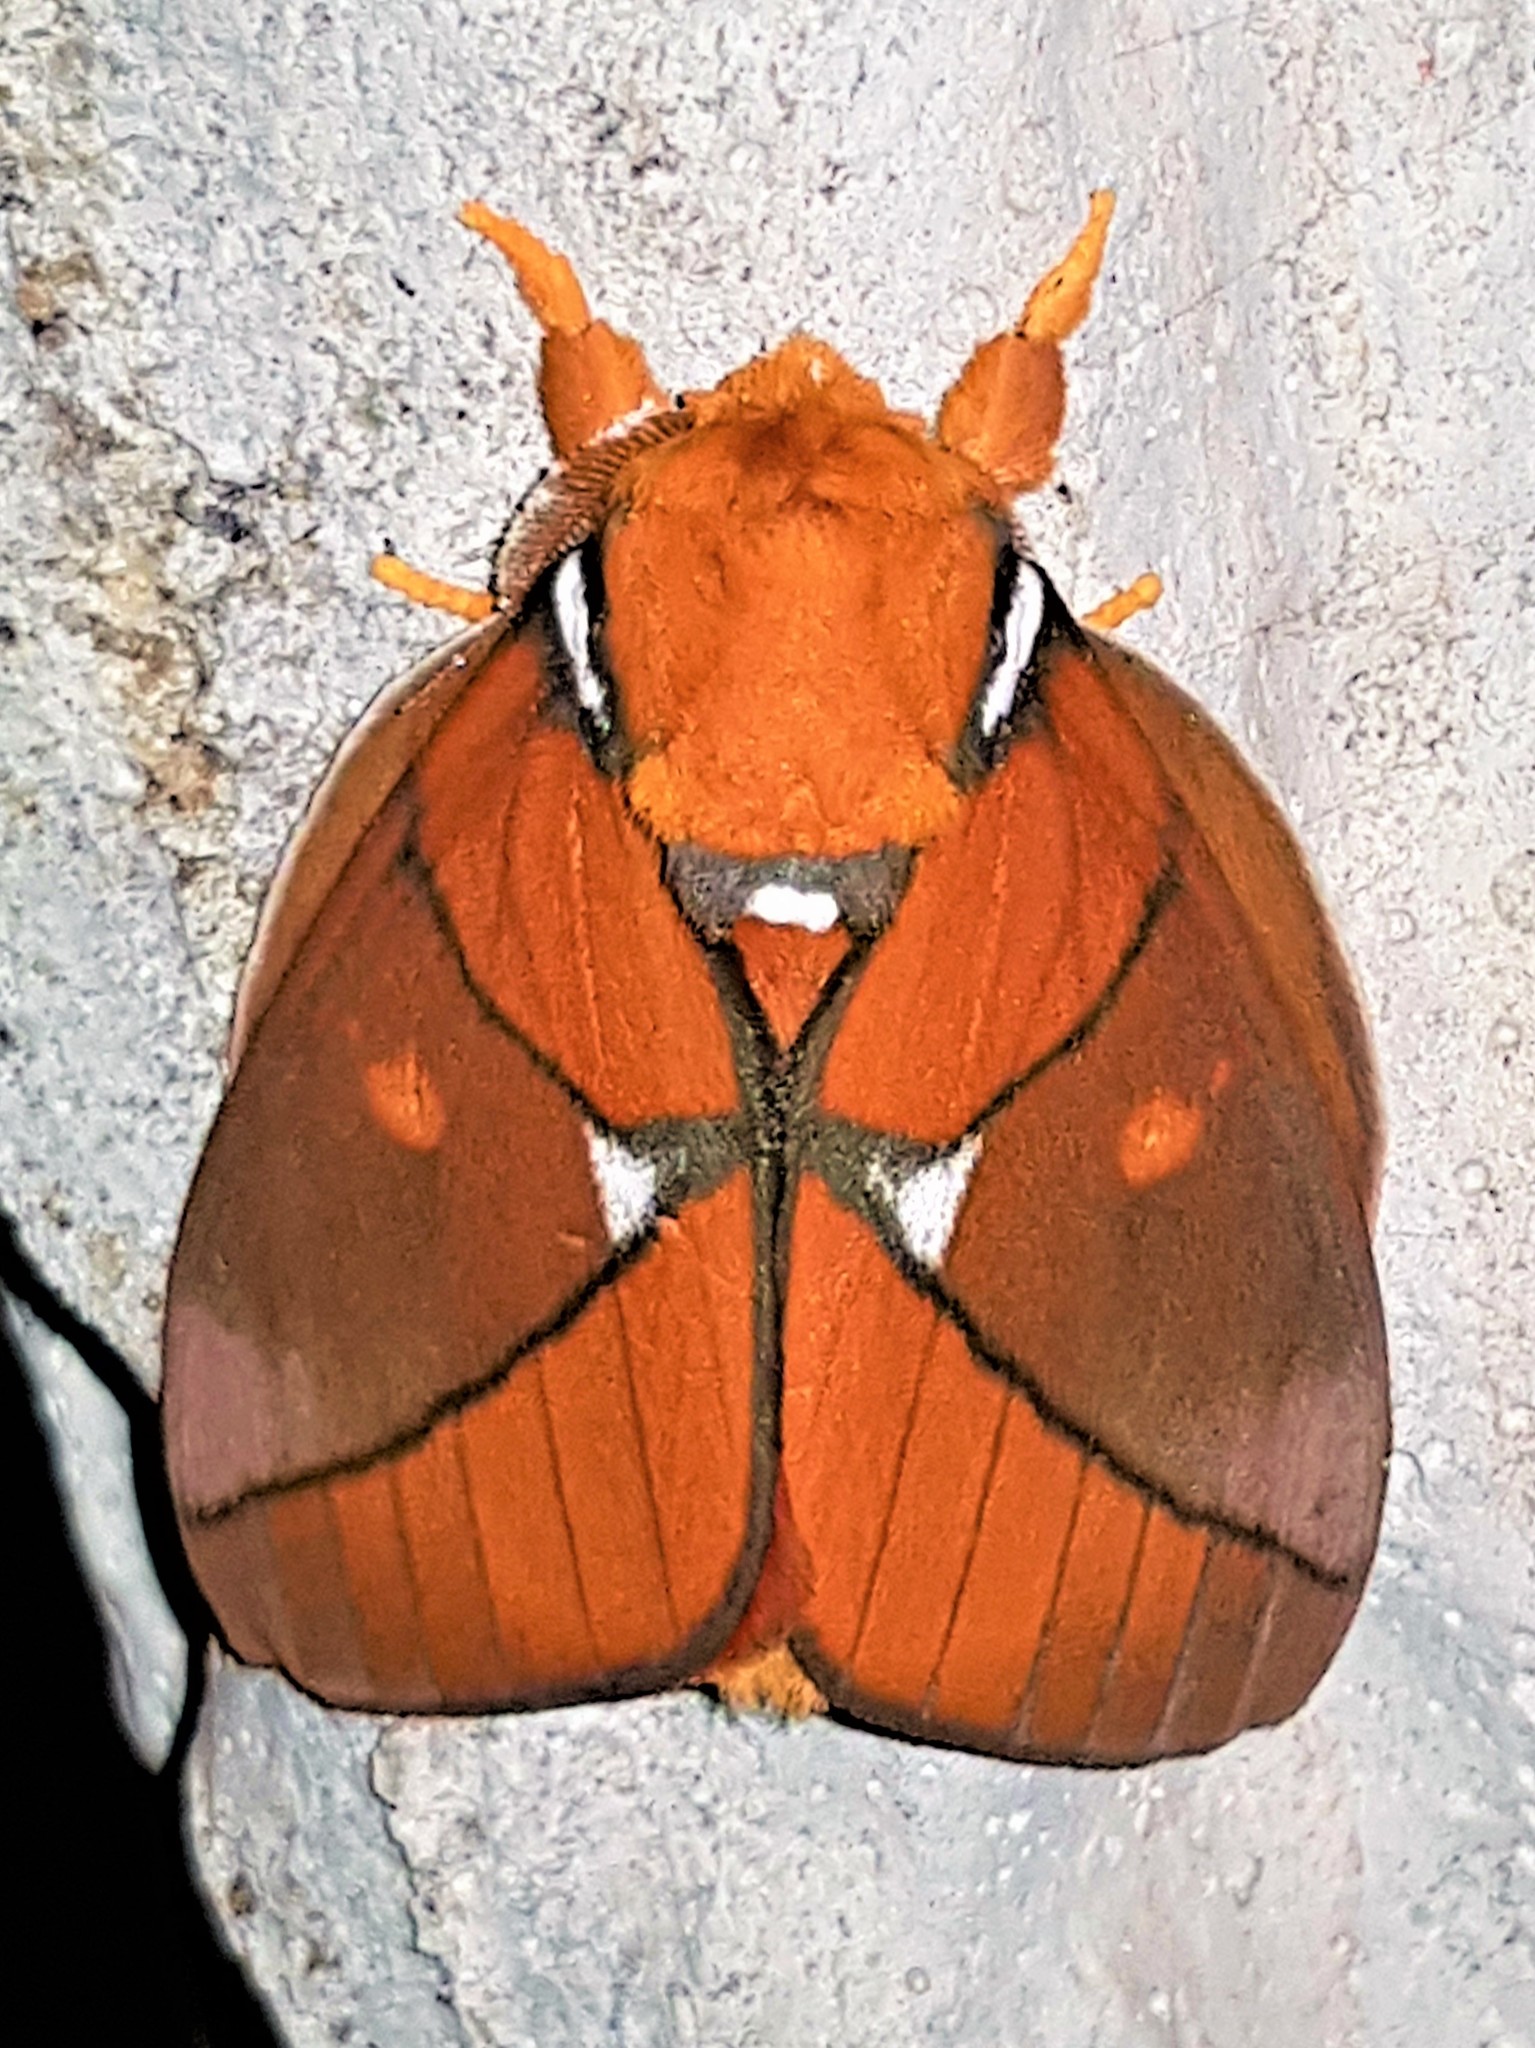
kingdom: Animalia
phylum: Arthropoda
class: Insecta
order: Lepidoptera
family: Saturniidae
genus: Schausiella
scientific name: Schausiella polybia
